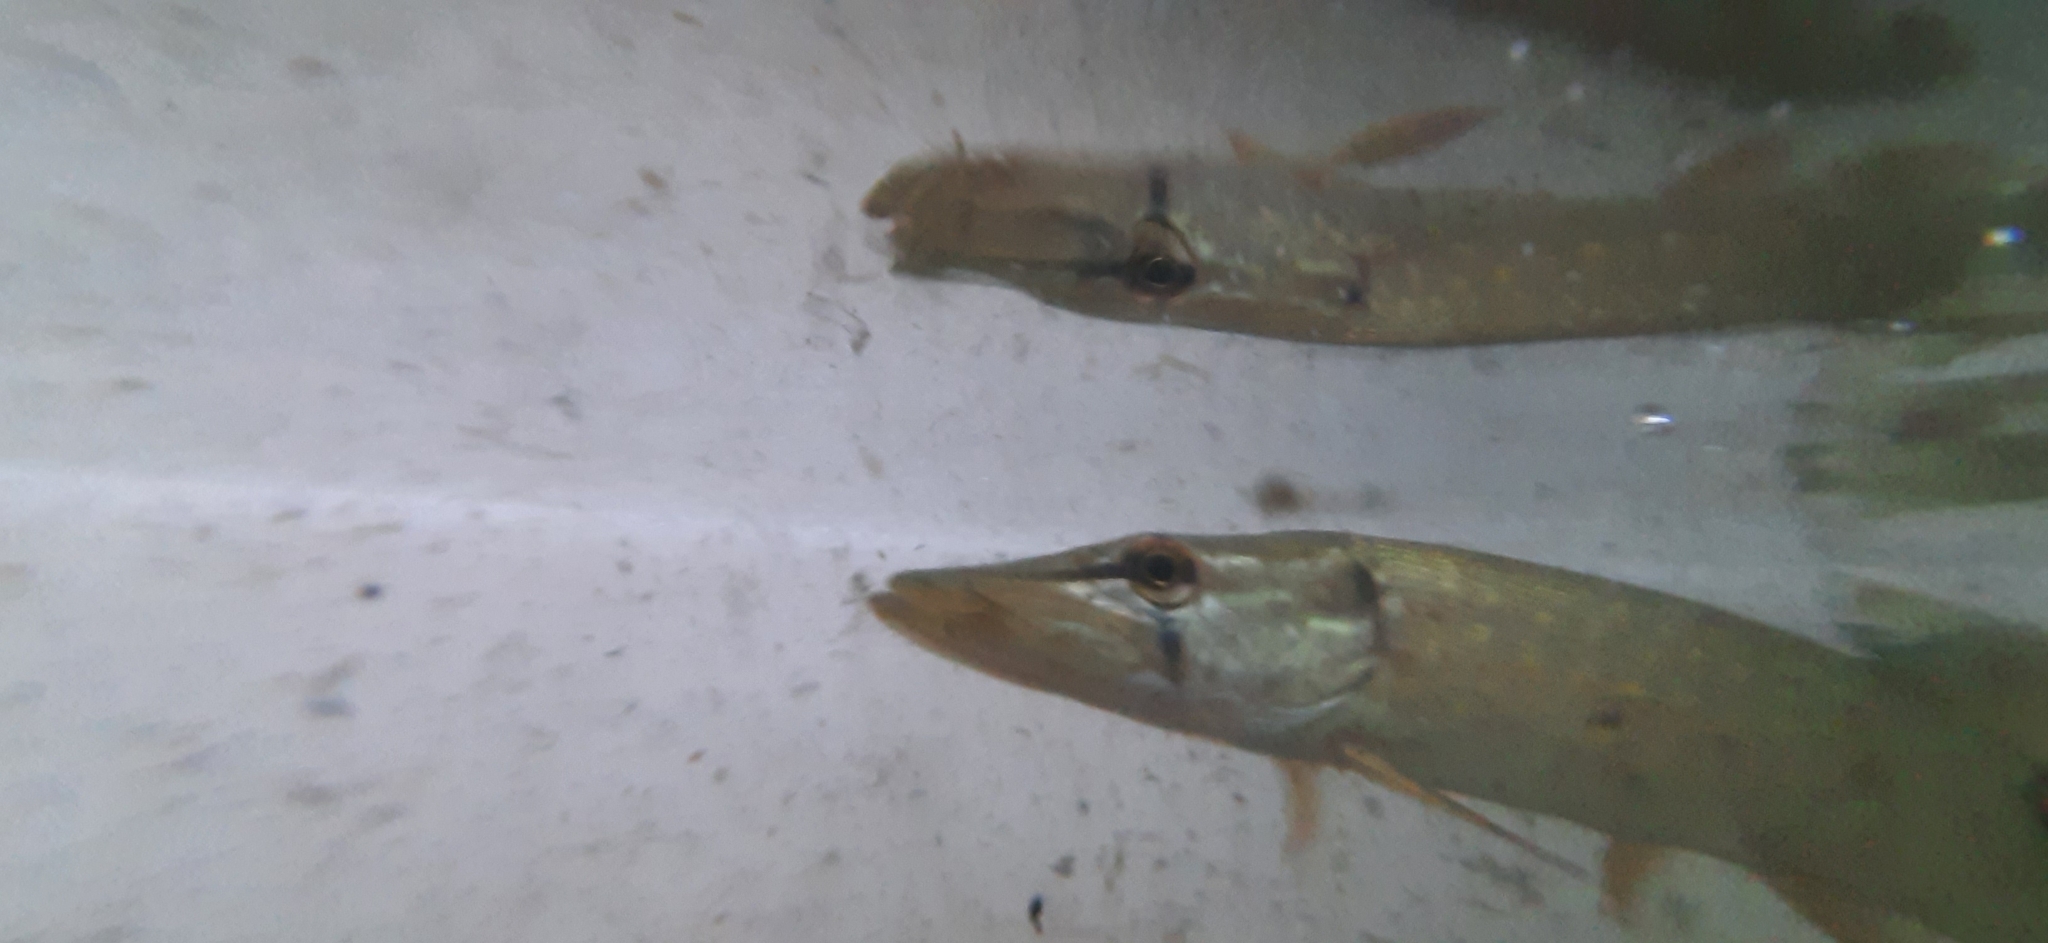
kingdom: Animalia
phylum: Chordata
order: Esociformes
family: Esocidae
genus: Esox
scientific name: Esox lucius
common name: Northern pike
